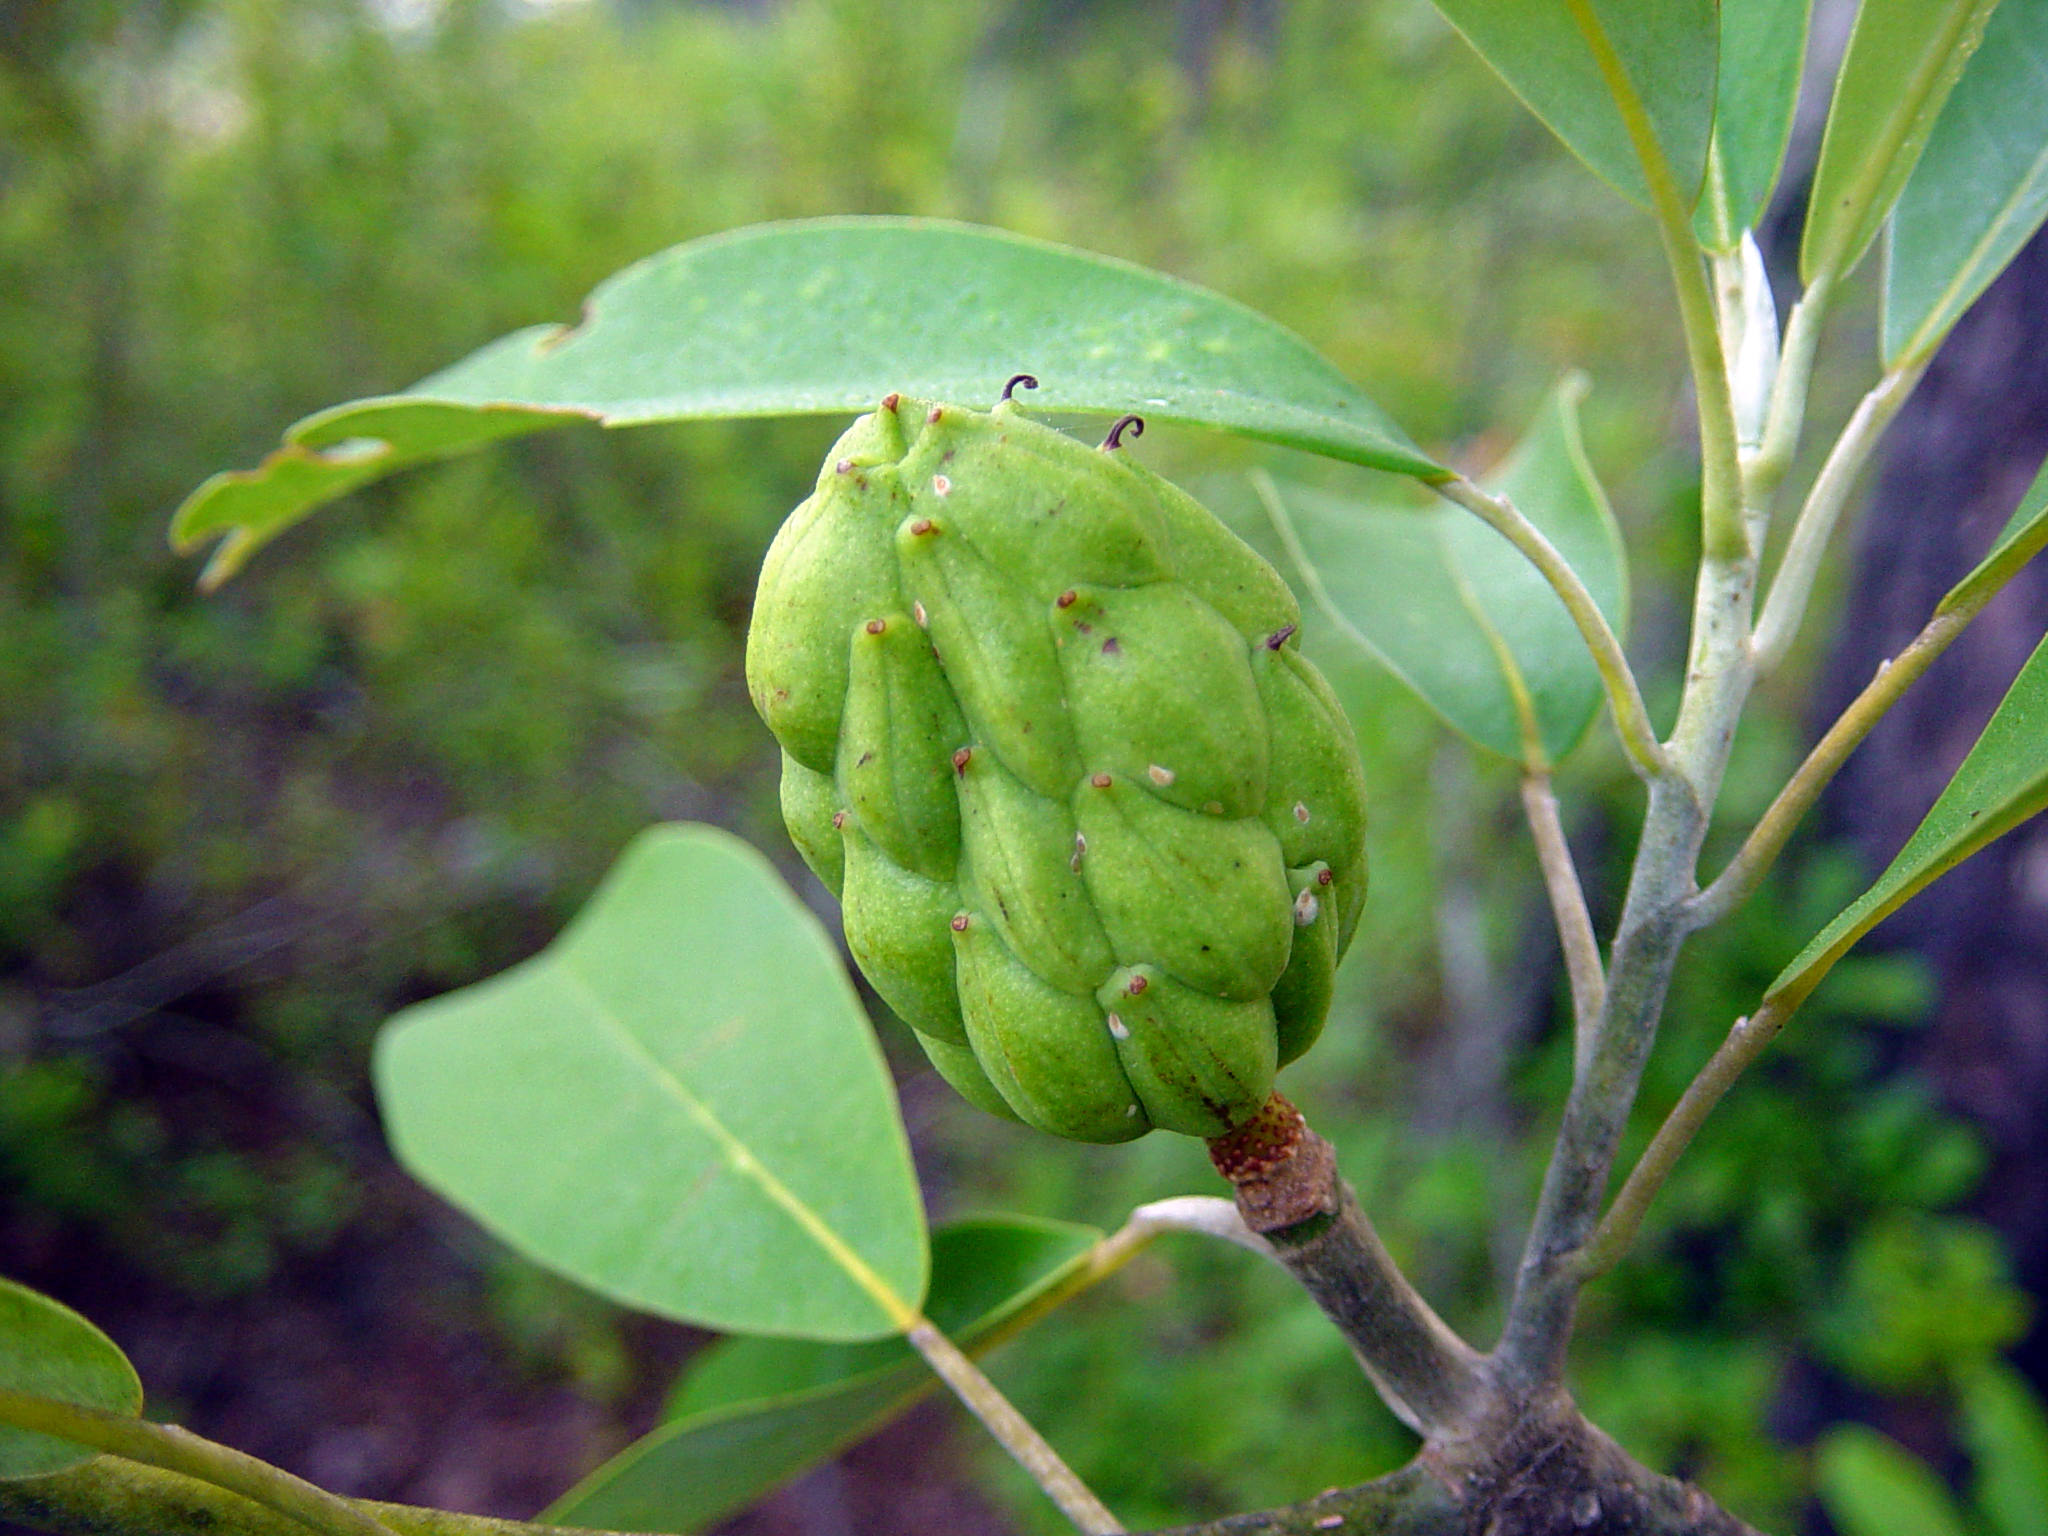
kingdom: Plantae
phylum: Tracheophyta
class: Magnoliopsida
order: Magnoliales
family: Magnoliaceae
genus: Magnolia
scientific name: Magnolia virginiana
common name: Swamp bay
